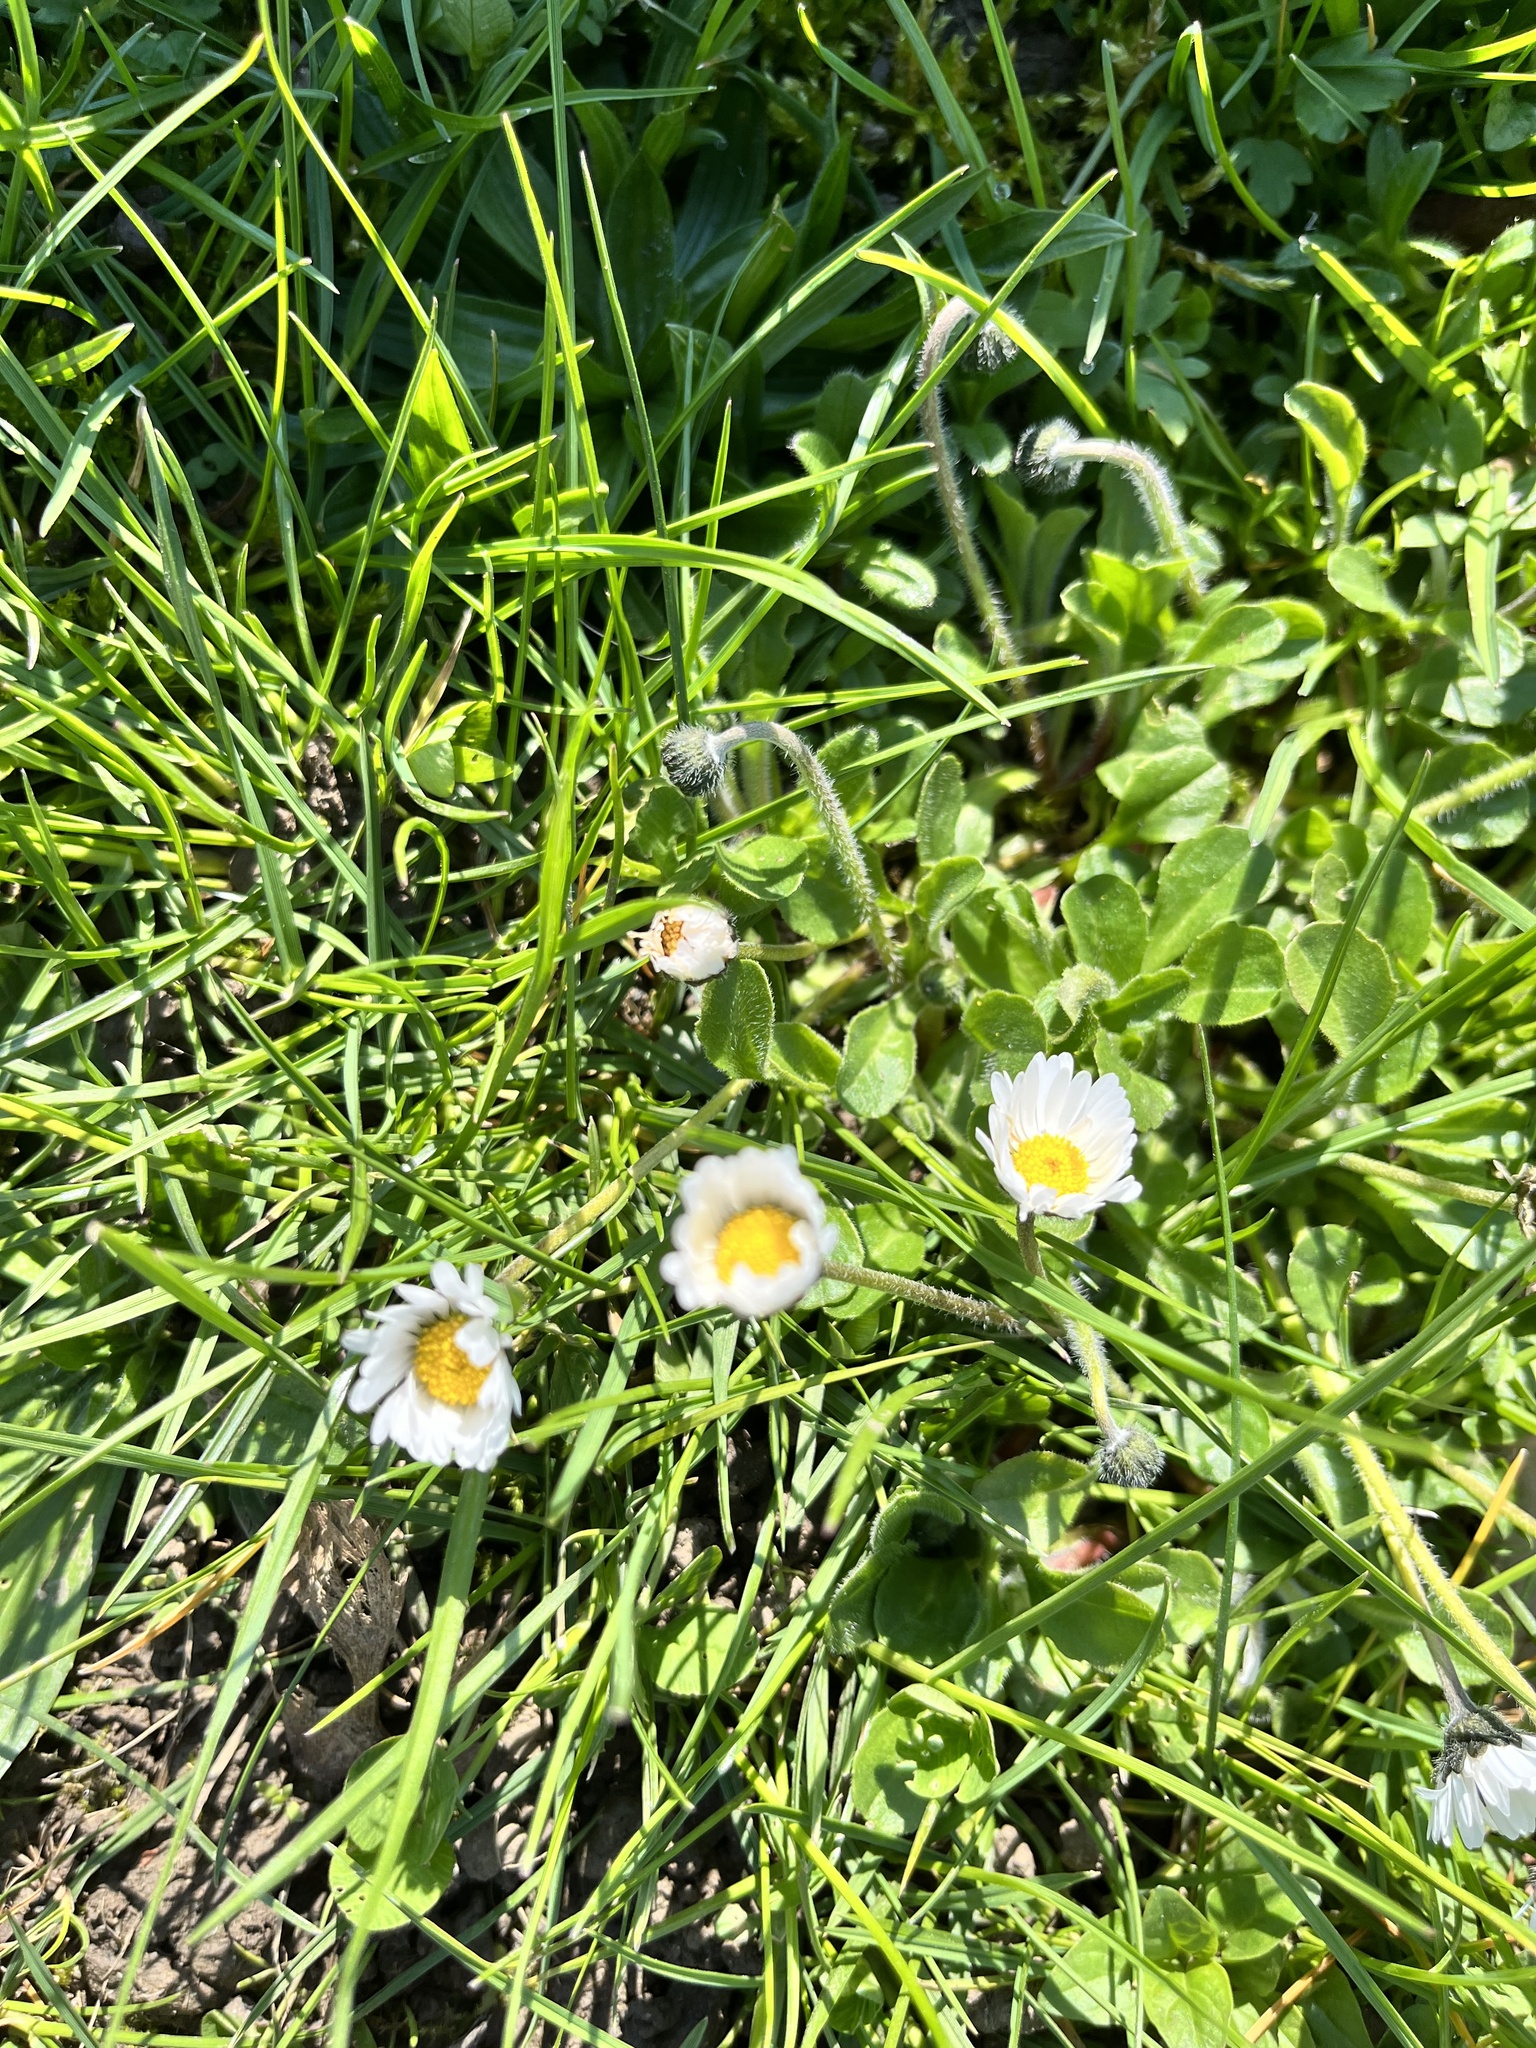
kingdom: Plantae
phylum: Tracheophyta
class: Magnoliopsida
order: Asterales
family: Asteraceae
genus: Bellis
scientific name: Bellis perennis
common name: Lawndaisy
